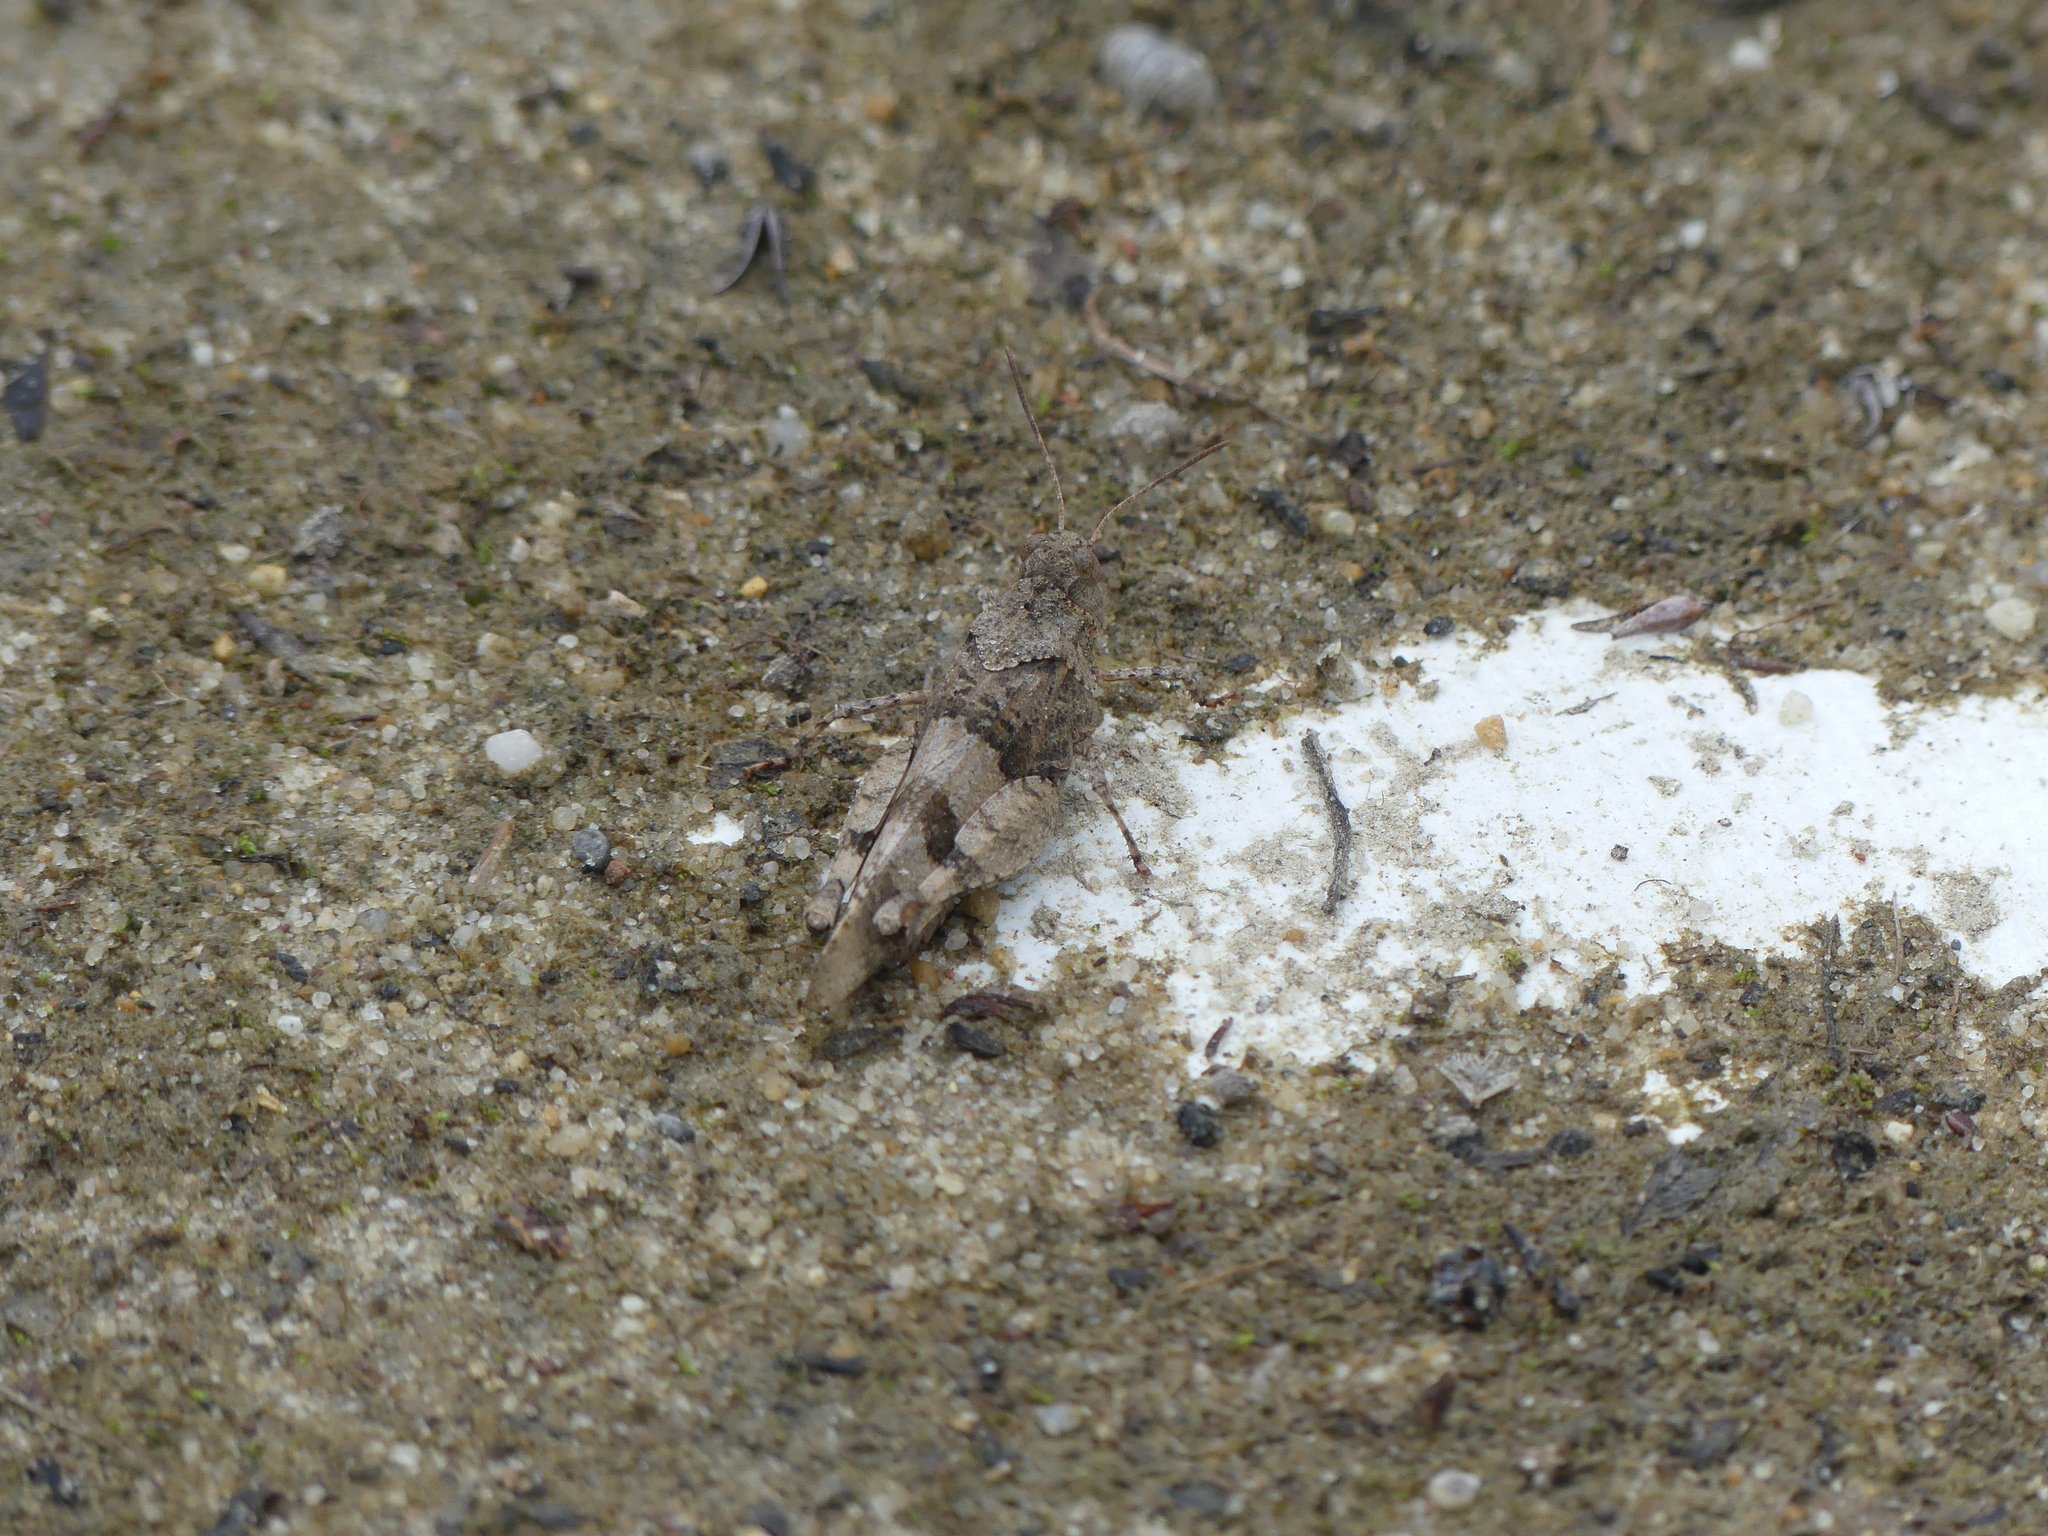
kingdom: Animalia
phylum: Arthropoda
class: Insecta
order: Orthoptera
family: Acrididae
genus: Oedipoda
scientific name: Oedipoda caerulescens
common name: Blue-winged grasshopper
